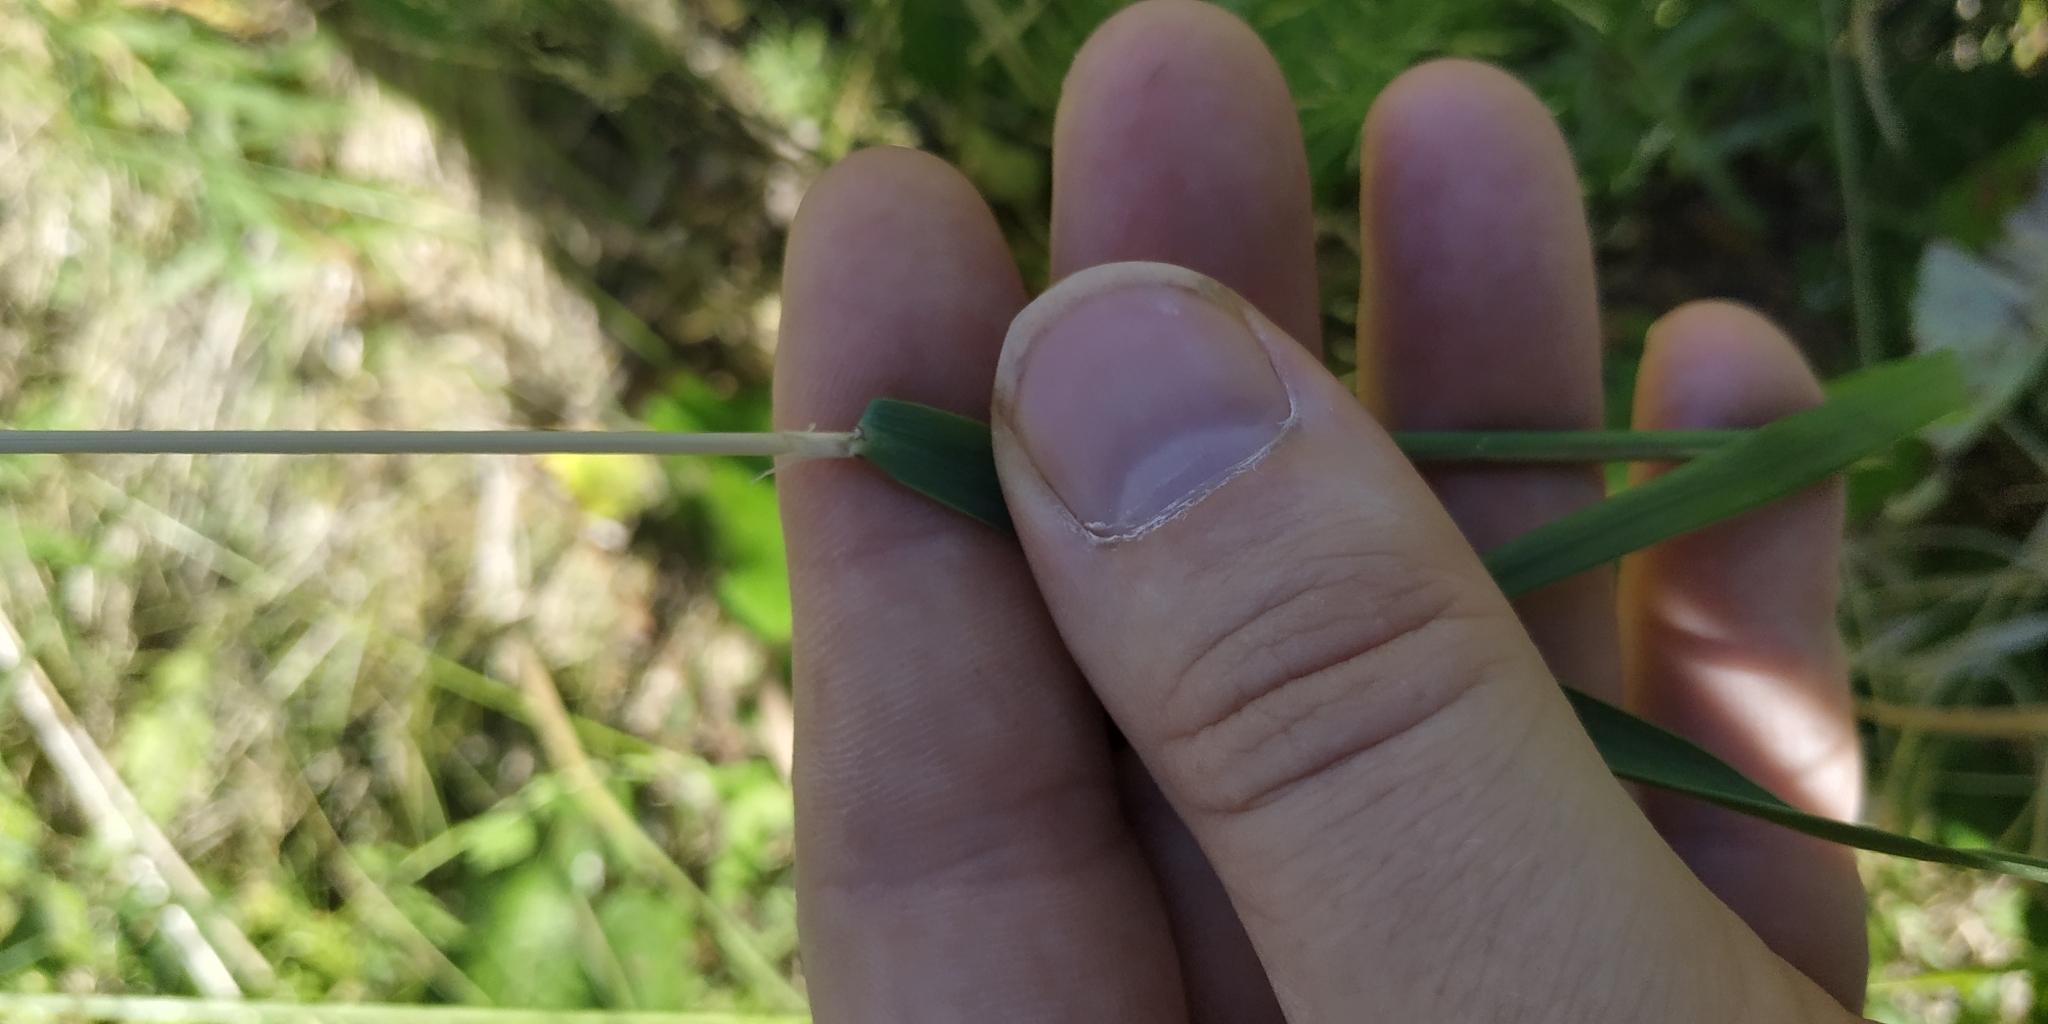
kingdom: Plantae
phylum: Tracheophyta
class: Liliopsida
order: Poales
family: Poaceae
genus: Calamagrostis
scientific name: Calamagrostis epigejos
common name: Wood small-reed
